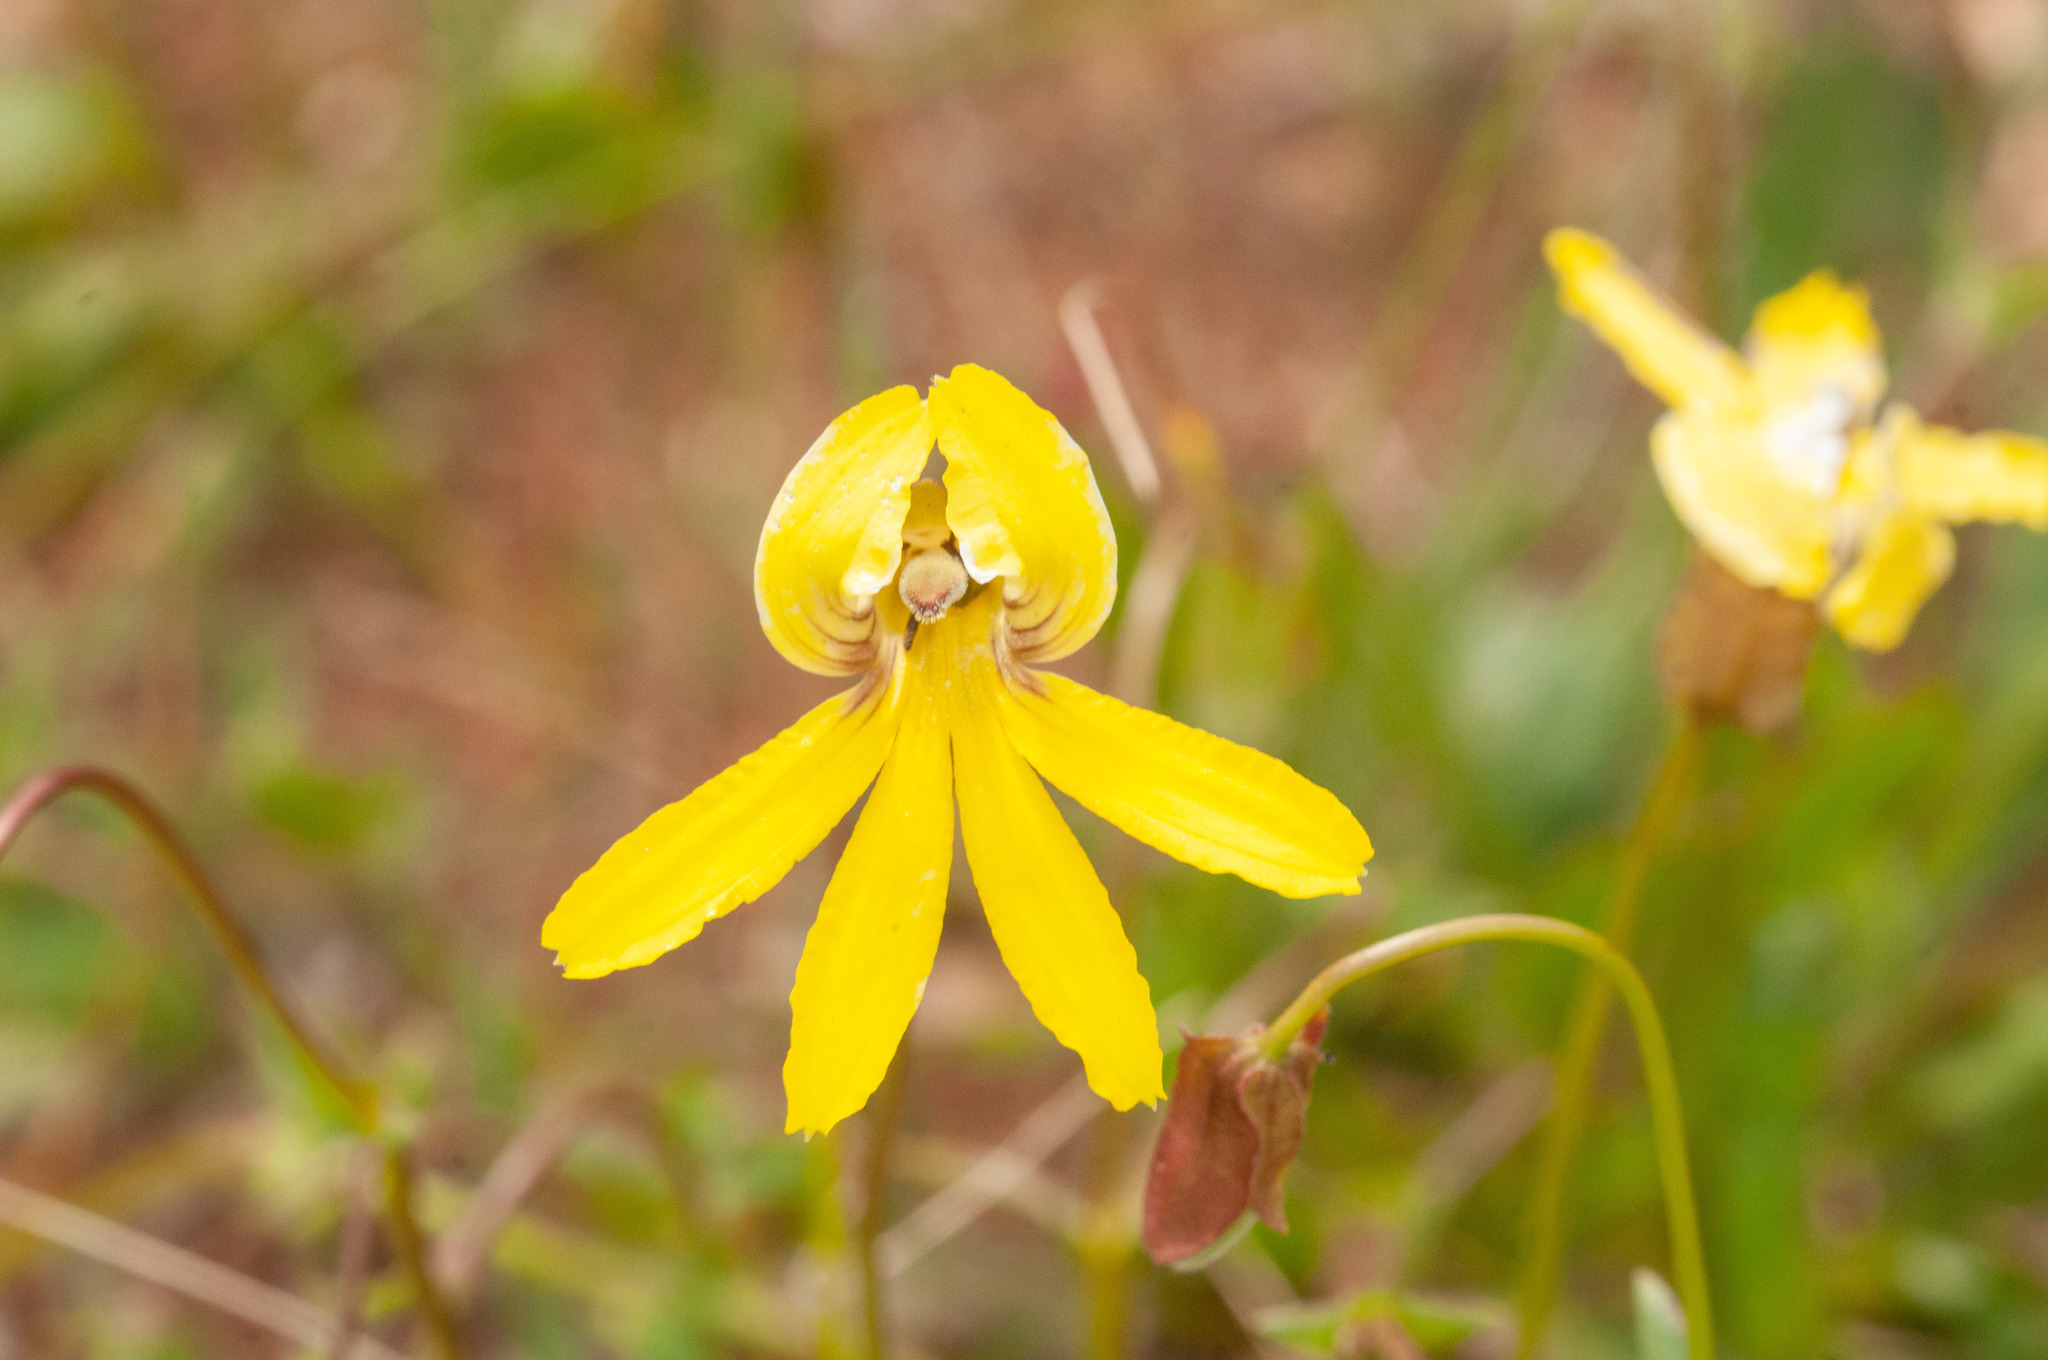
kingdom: Plantae
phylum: Tracheophyta
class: Magnoliopsida
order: Asterales
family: Goodeniaceae
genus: Goodenia
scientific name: Goodenia arguta
